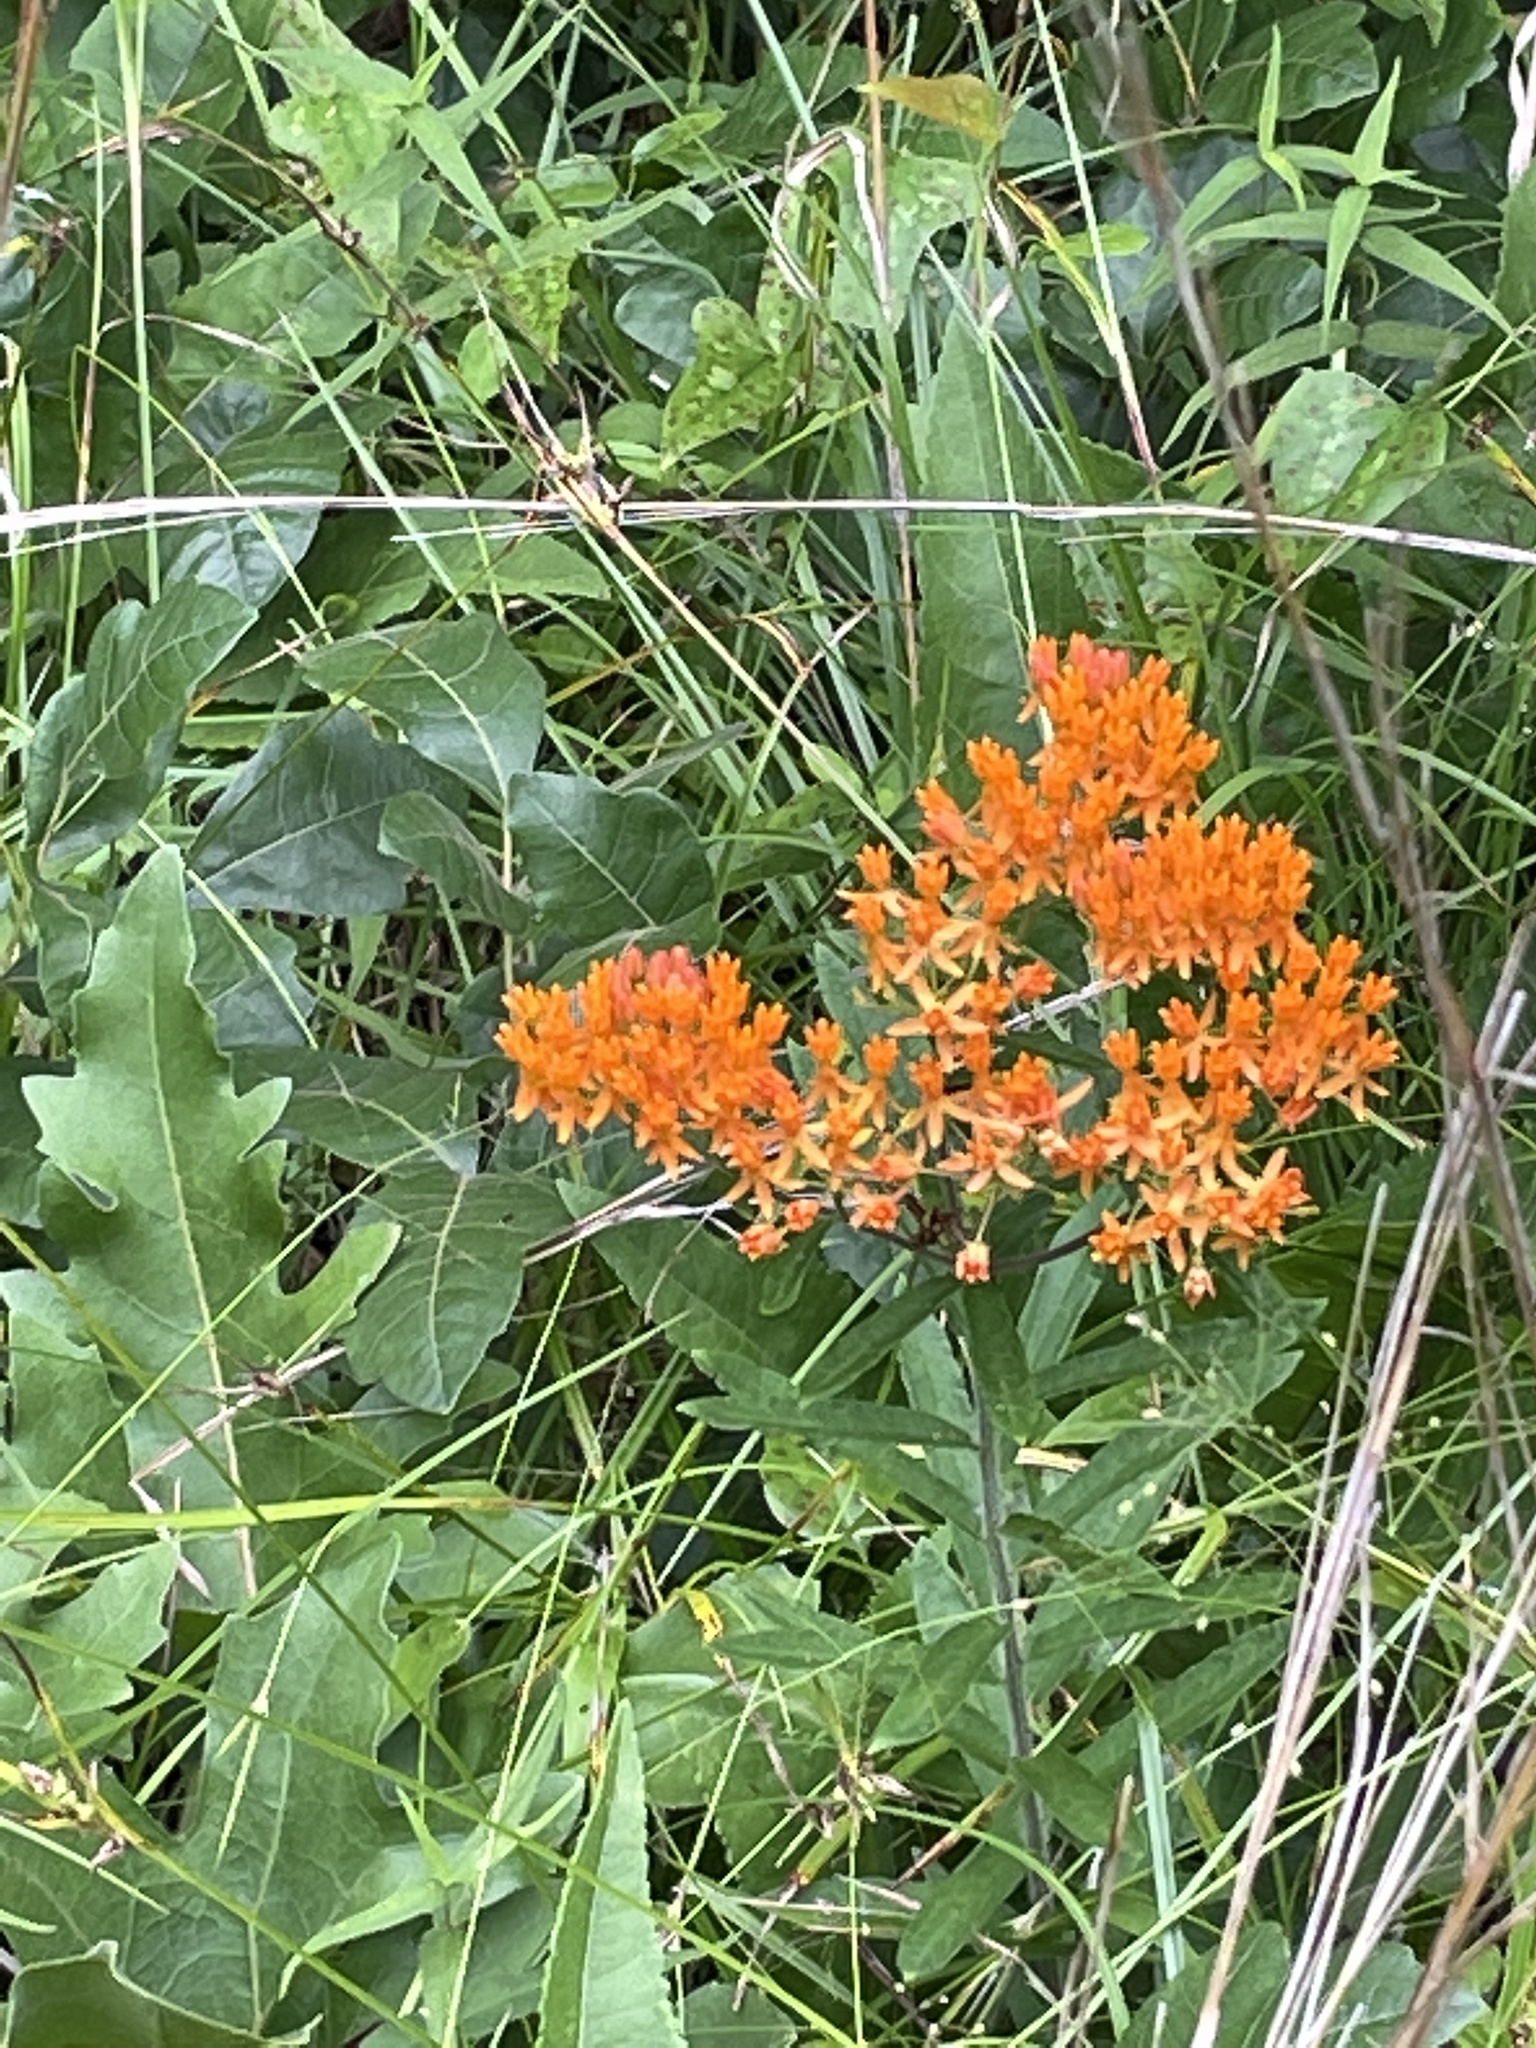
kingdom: Plantae
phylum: Tracheophyta
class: Magnoliopsida
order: Gentianales
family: Apocynaceae
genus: Asclepias
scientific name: Asclepias tuberosa
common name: Butterfly milkweed
